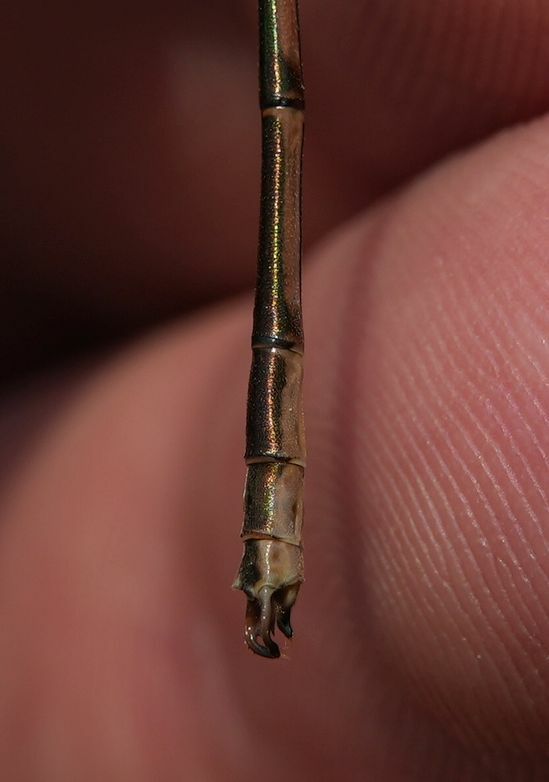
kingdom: Animalia
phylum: Arthropoda
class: Insecta
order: Odonata
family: Lestidae
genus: Lestes
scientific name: Lestes rectangularis
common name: Slender spreadwing
